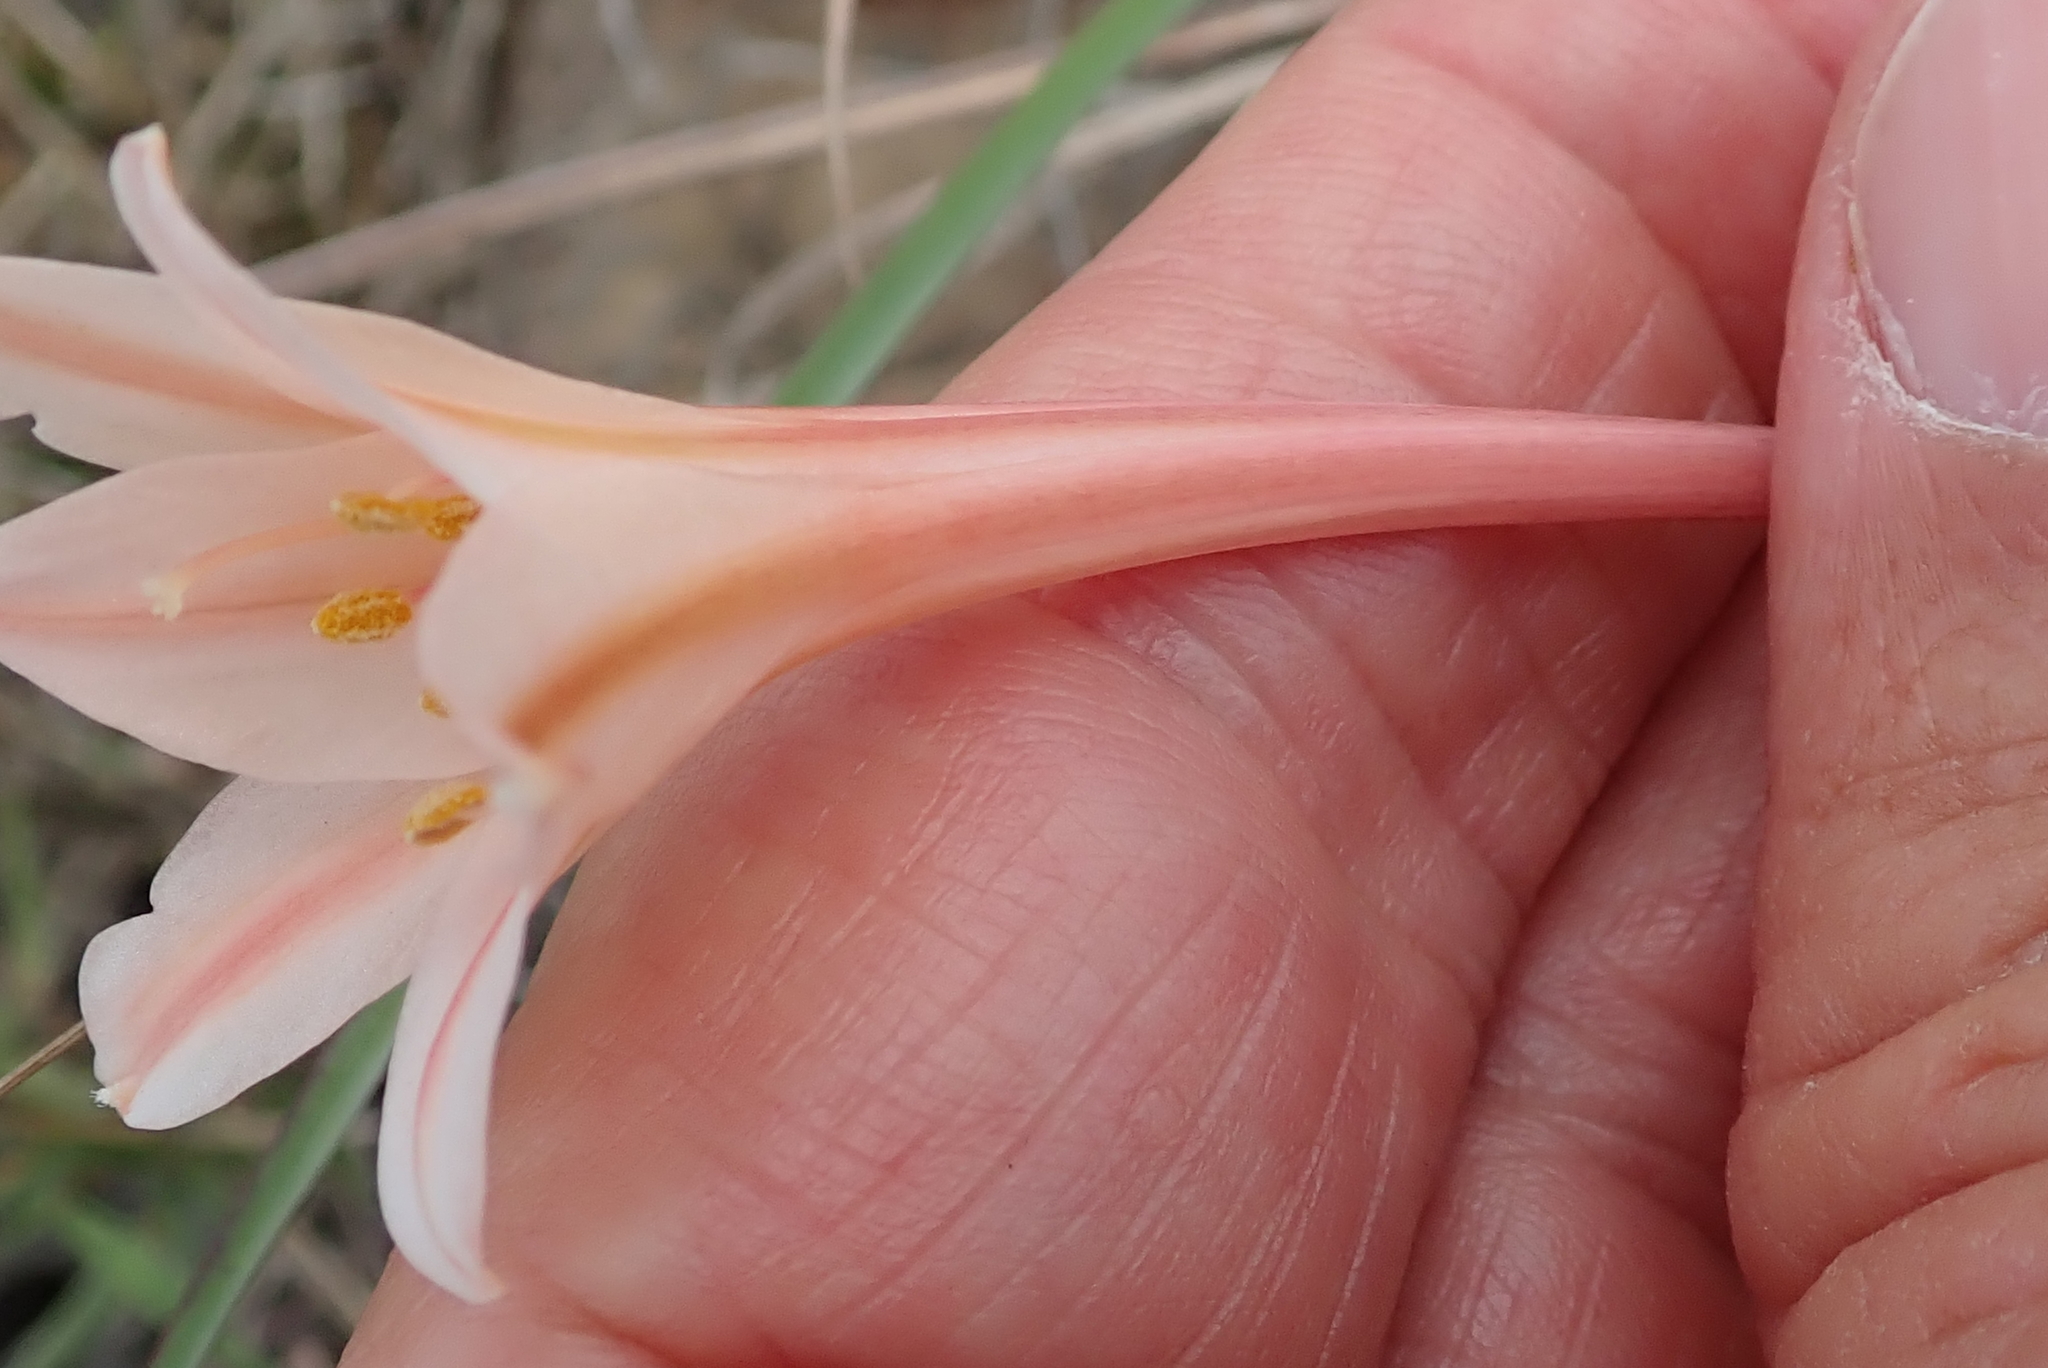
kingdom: Plantae
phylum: Tracheophyta
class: Liliopsida
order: Asparagales
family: Amaryllidaceae
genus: Cyrtanthus
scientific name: Cyrtanthus leptosiphon
